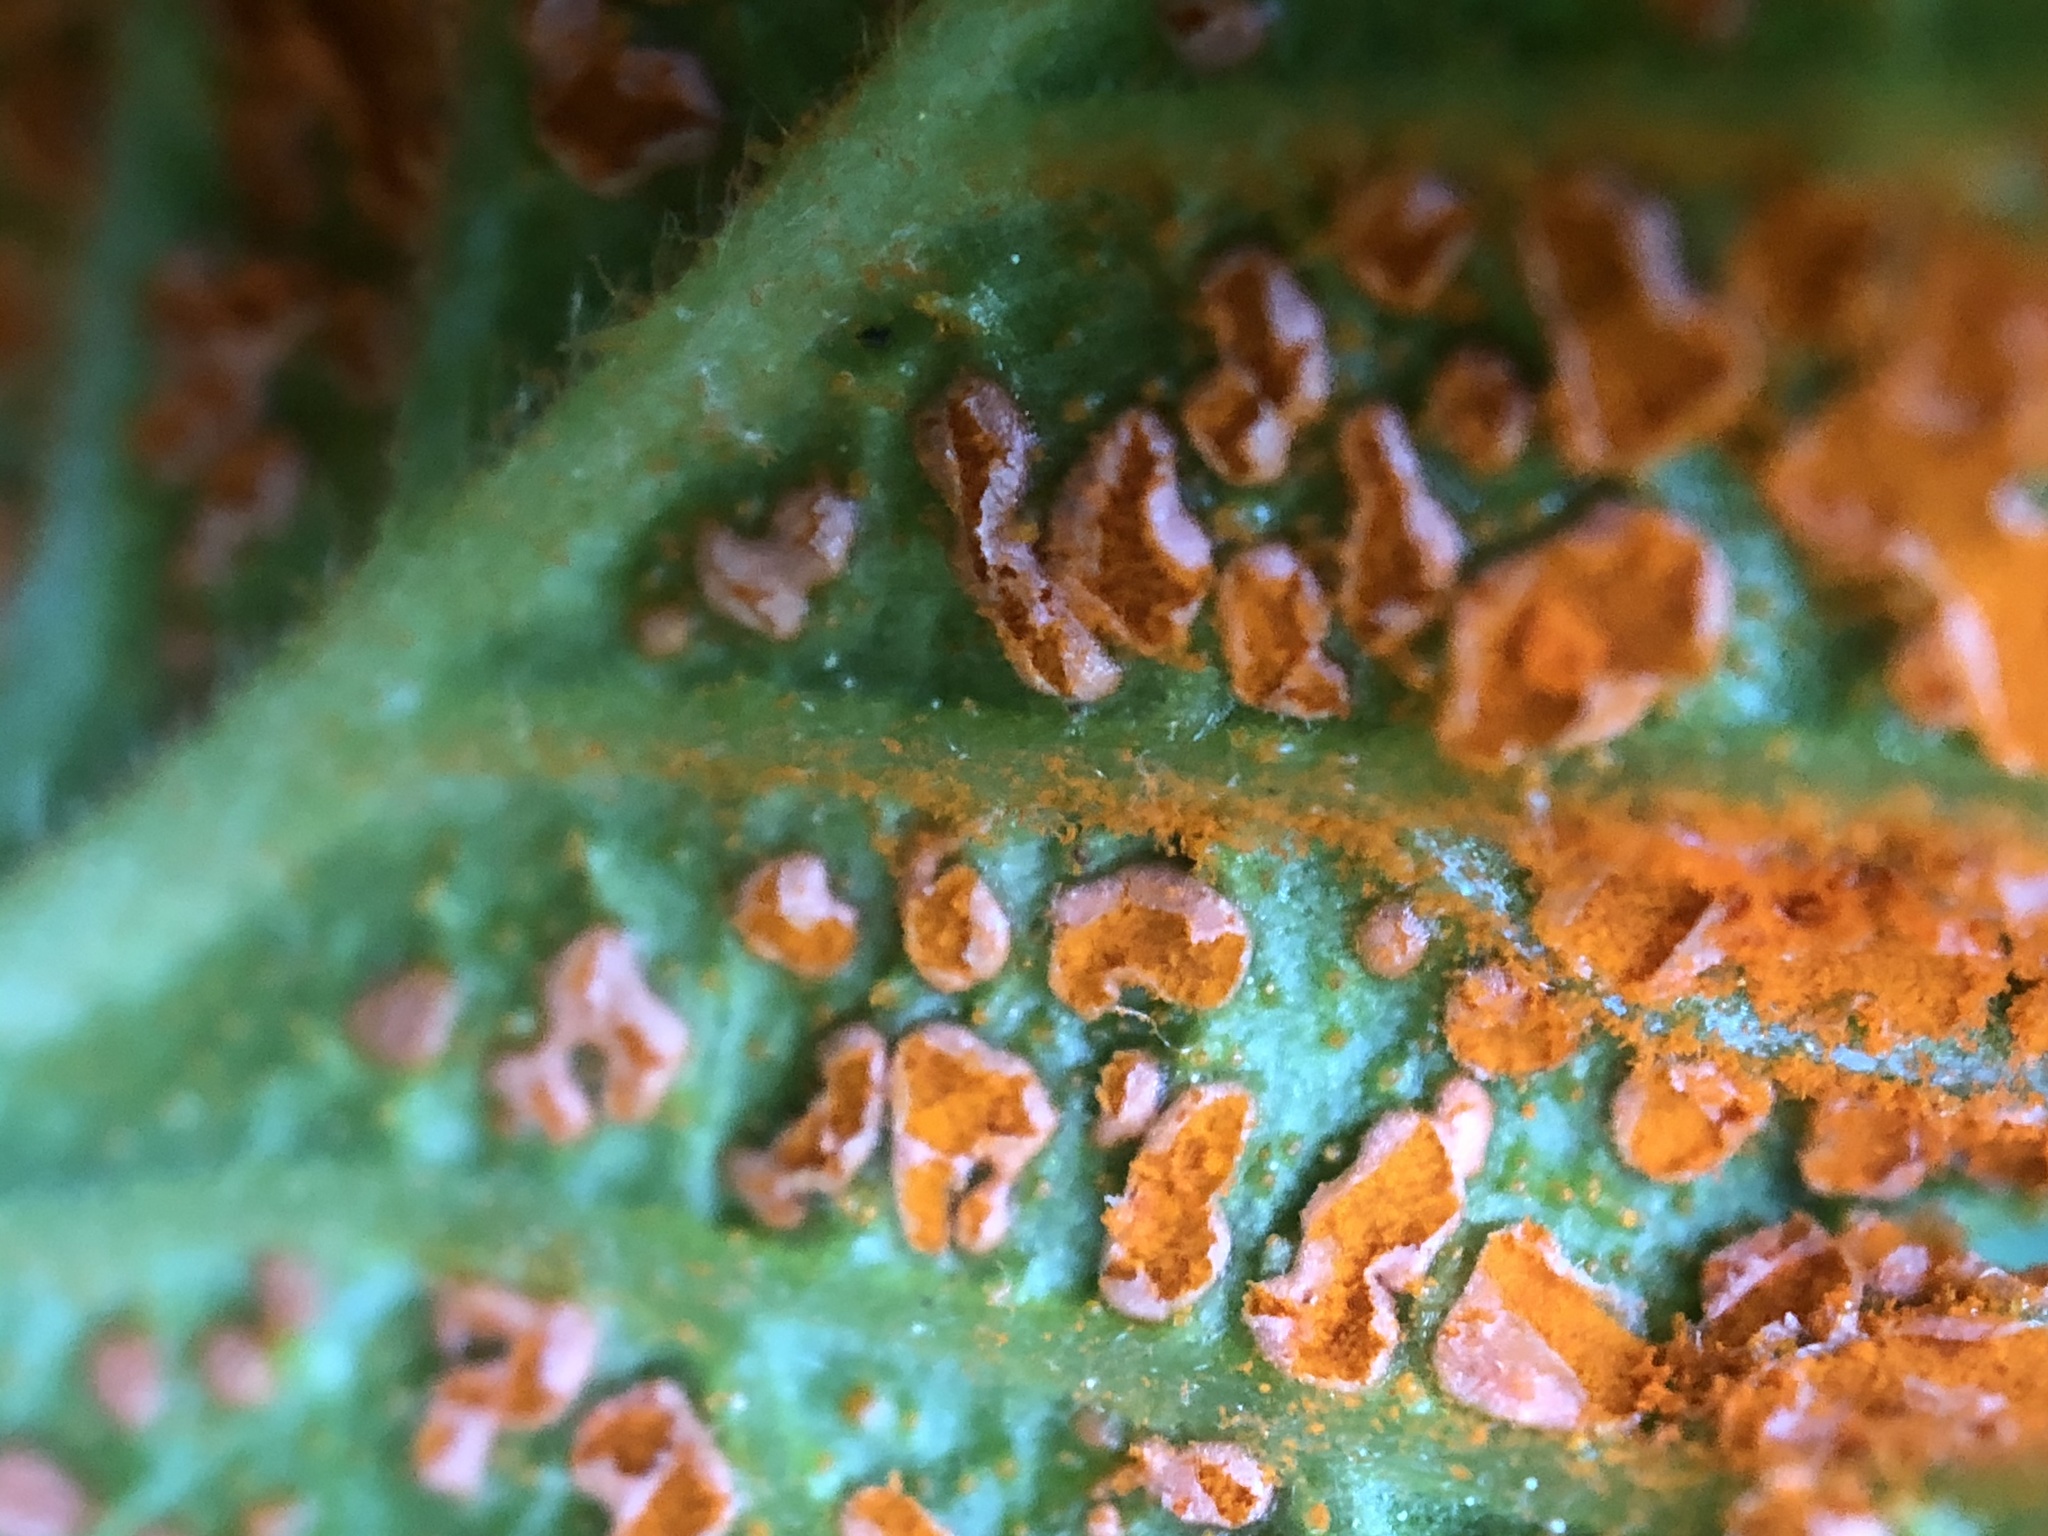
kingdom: Fungi
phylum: Basidiomycota
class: Pucciniomycetes
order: Pucciniales
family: Phragmidiaceae
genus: Arthuriomyces
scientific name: Arthuriomyces peckianus
